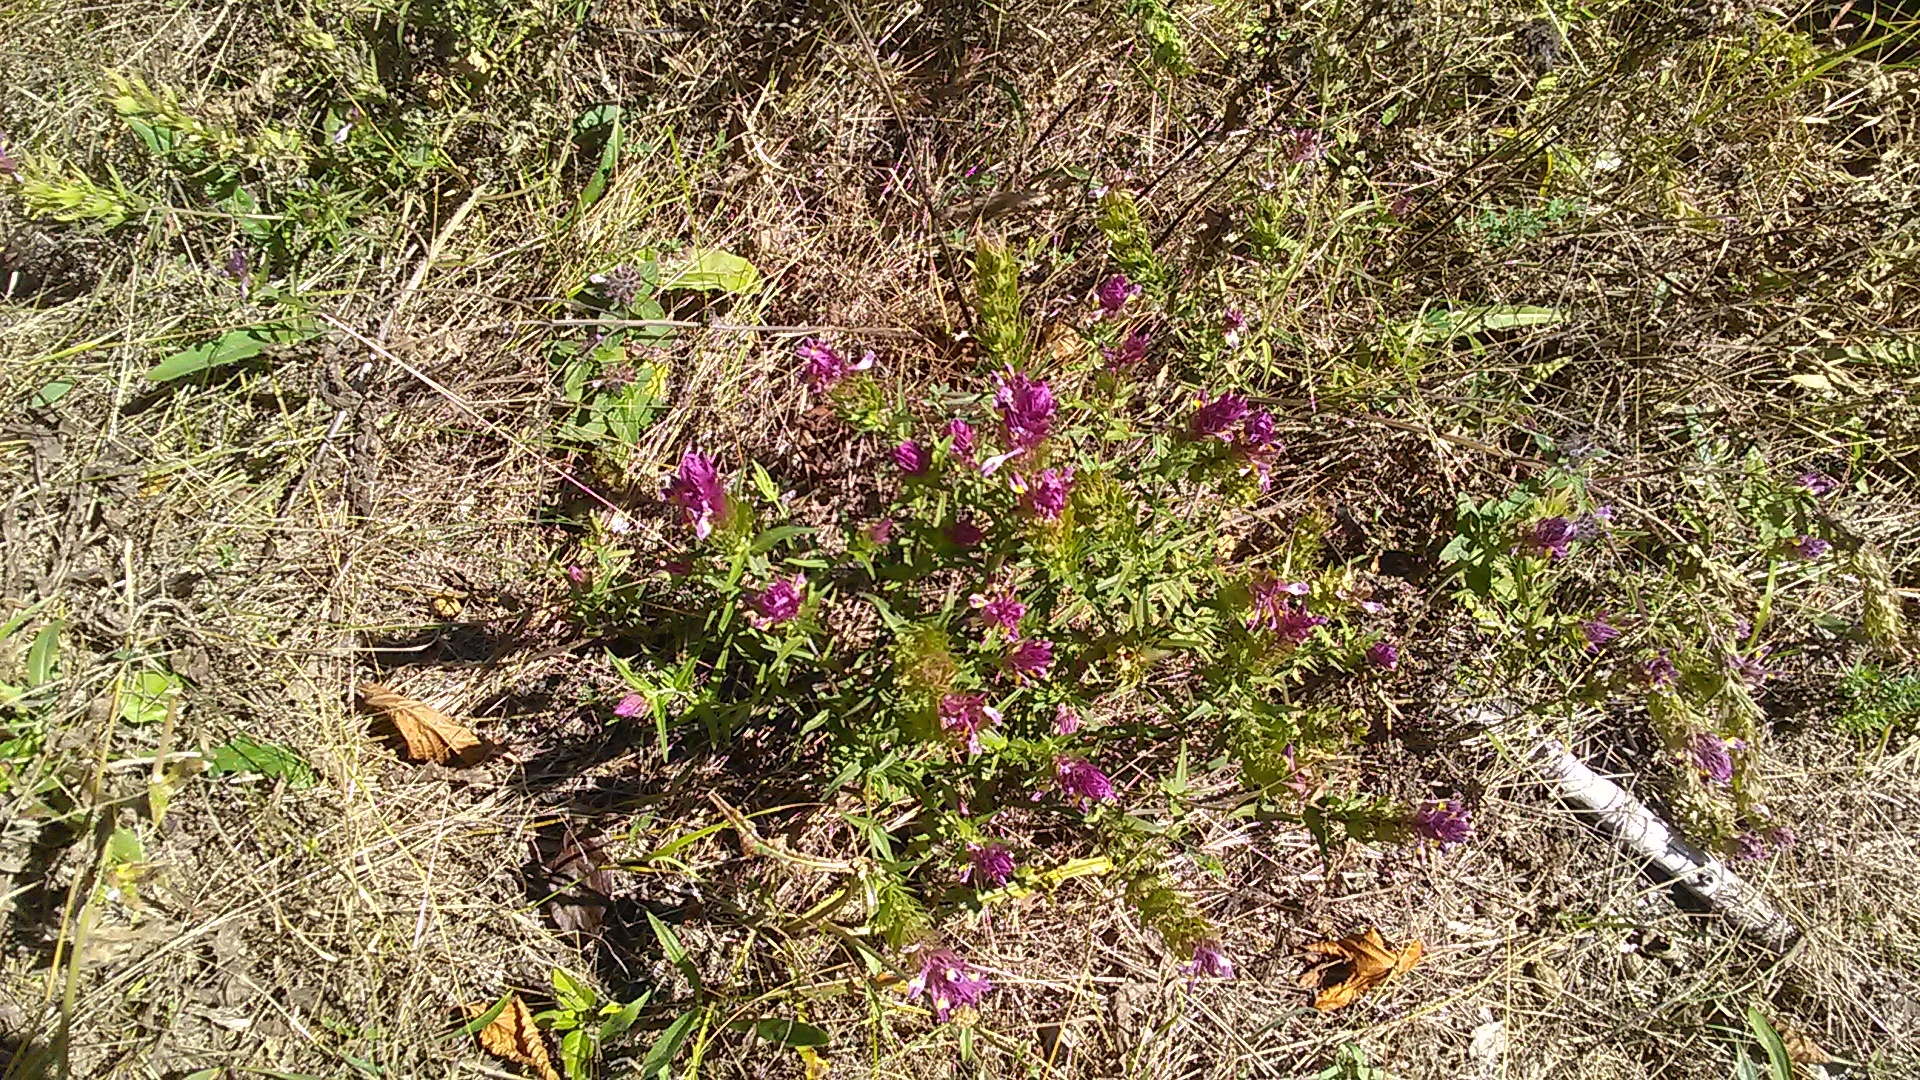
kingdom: Plantae
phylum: Tracheophyta
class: Magnoliopsida
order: Lamiales
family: Orobanchaceae
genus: Melampyrum
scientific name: Melampyrum arvense
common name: Field cow-wheat
